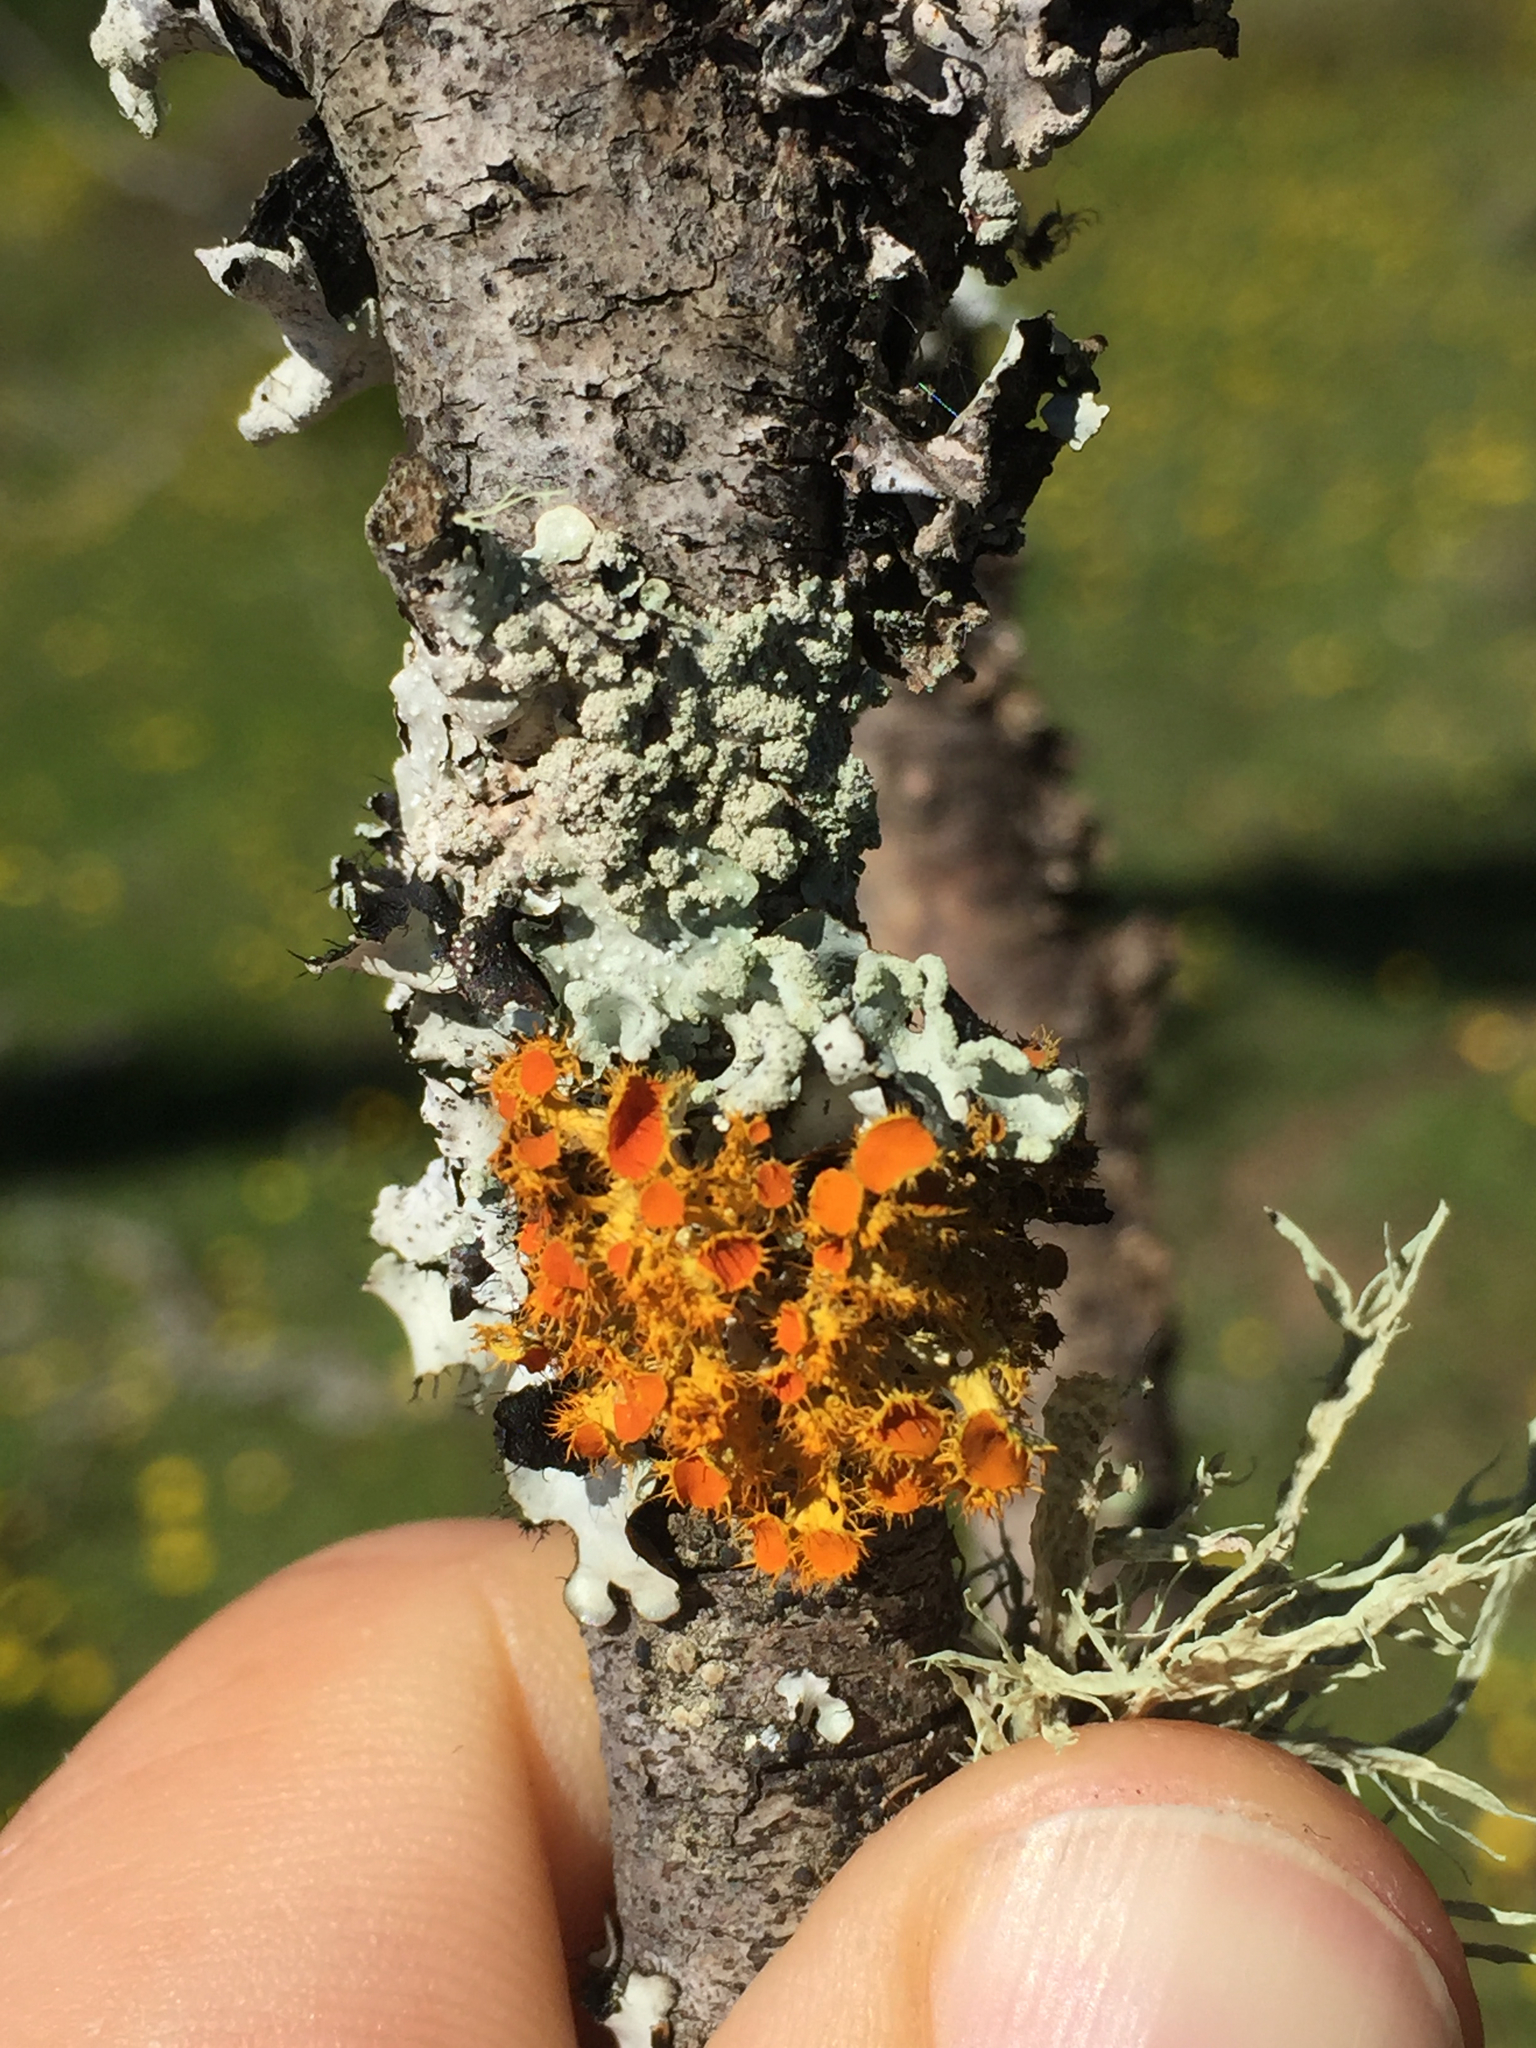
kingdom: Fungi
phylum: Ascomycota
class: Lecanoromycetes
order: Teloschistales
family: Teloschistaceae
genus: Niorma
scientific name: Niorma chrysophthalma
